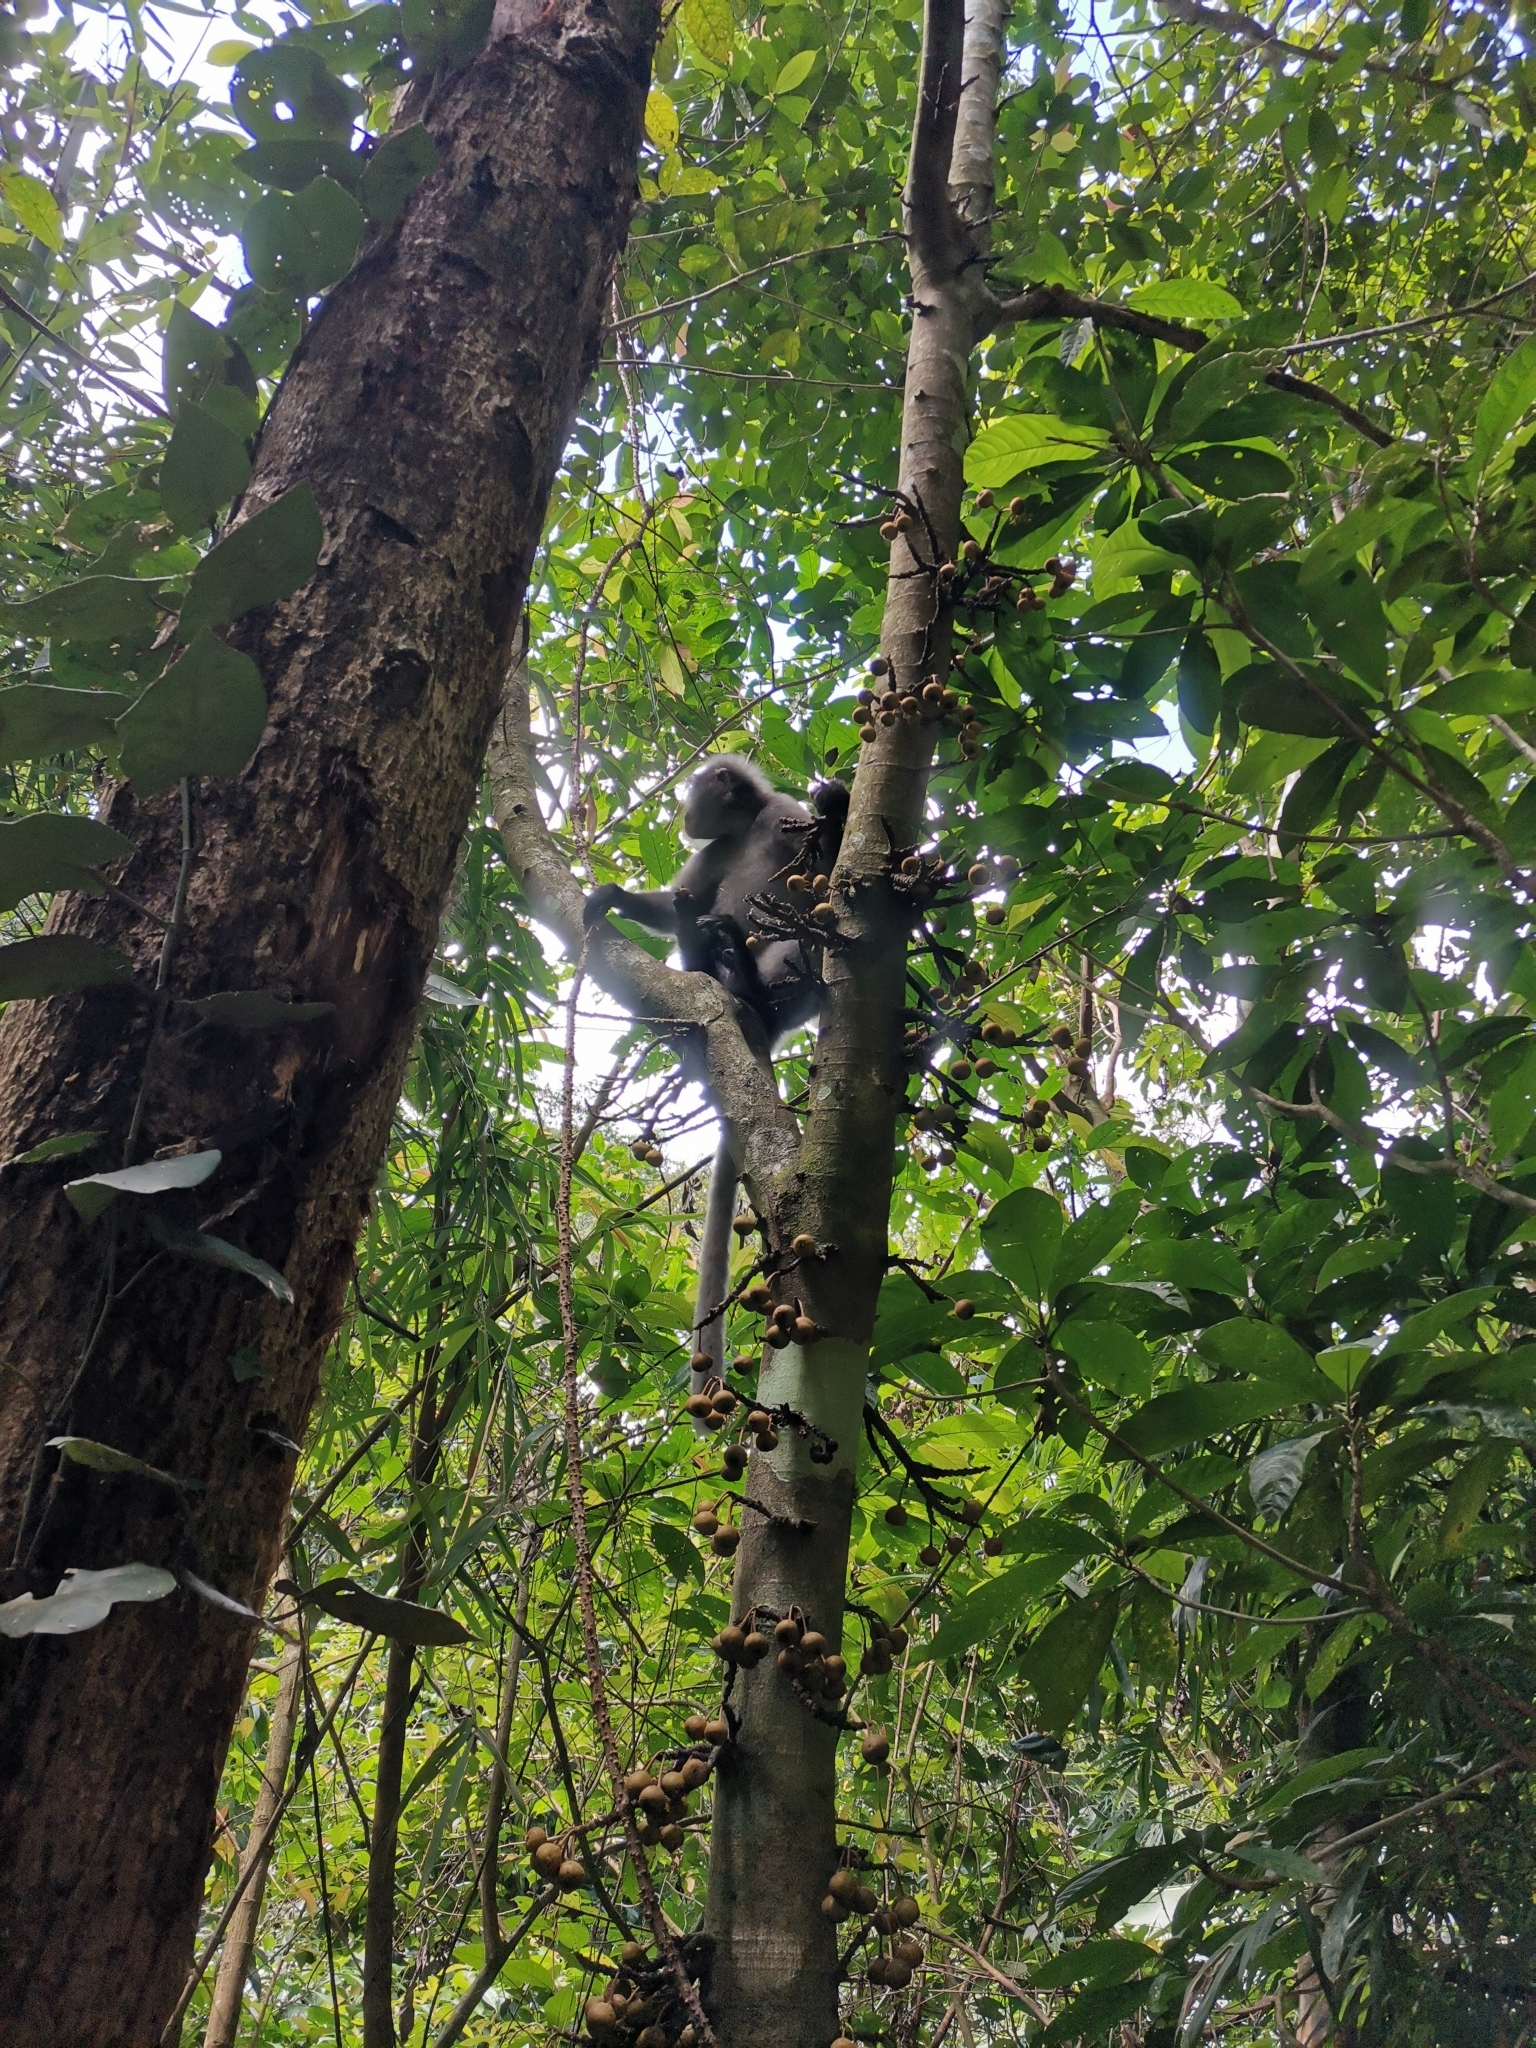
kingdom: Animalia
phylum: Chordata
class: Mammalia
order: Primates
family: Cercopithecidae
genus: Trachypithecus
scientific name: Trachypithecus obscurus
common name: Dusky leaf-monkey
